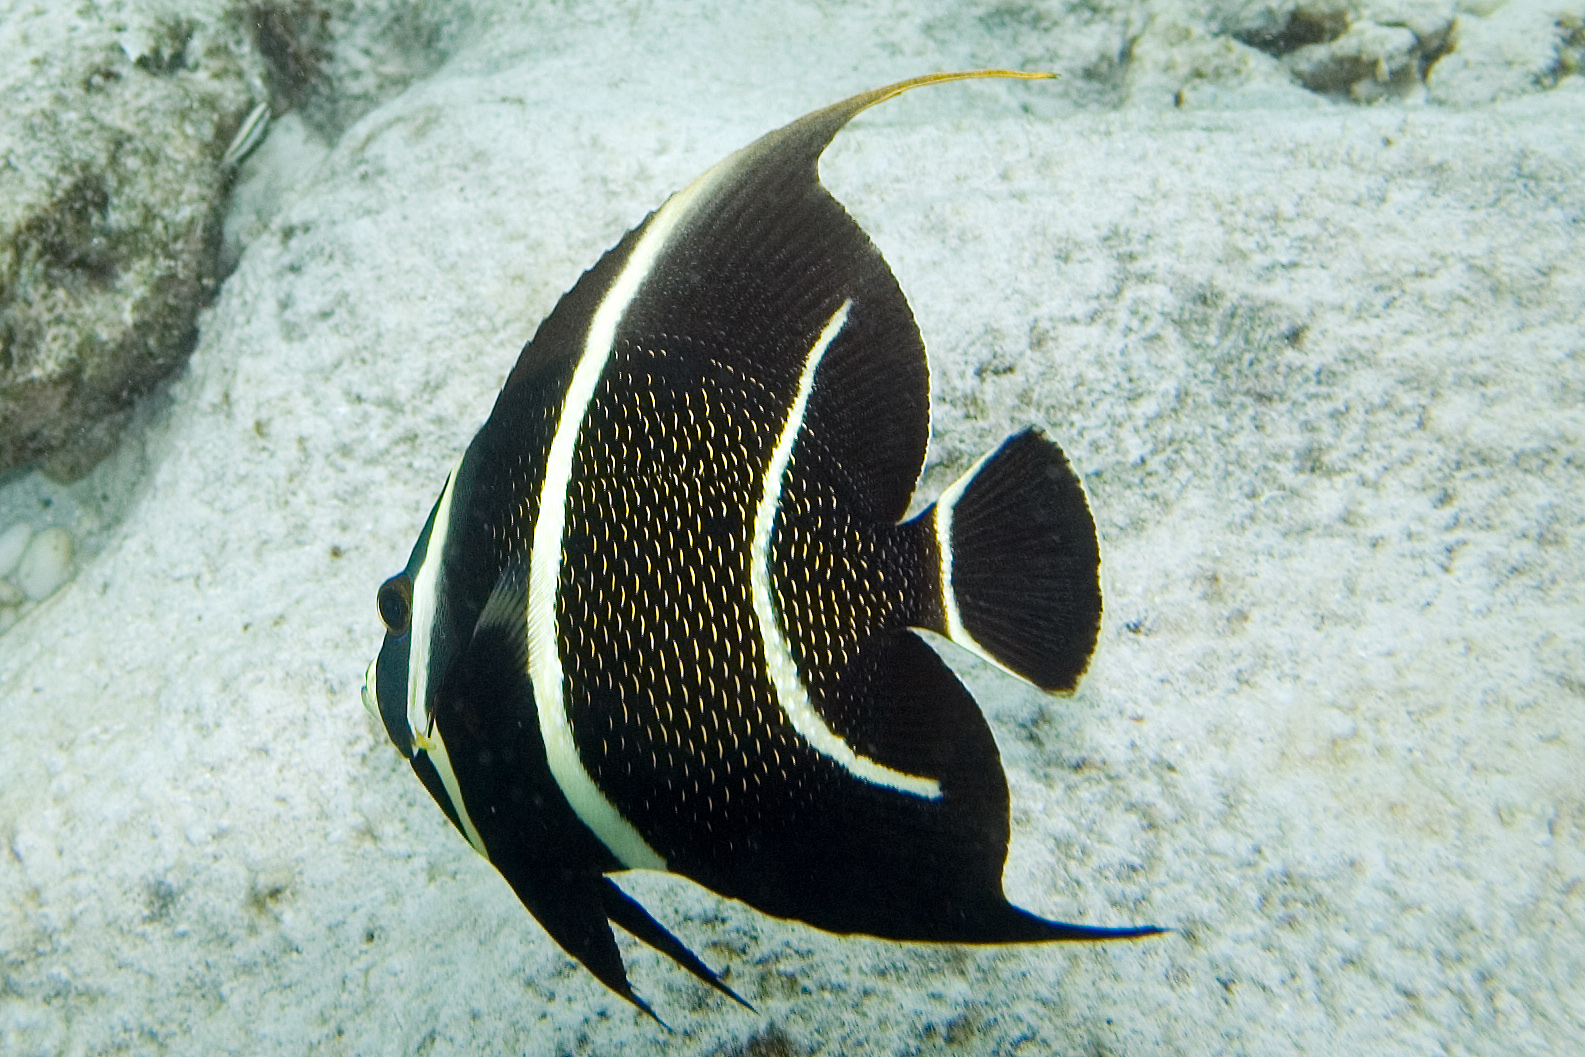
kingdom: Animalia
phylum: Chordata
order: Perciformes
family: Pomacanthidae
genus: Pomacanthus
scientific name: Pomacanthus paru
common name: French angelfish
